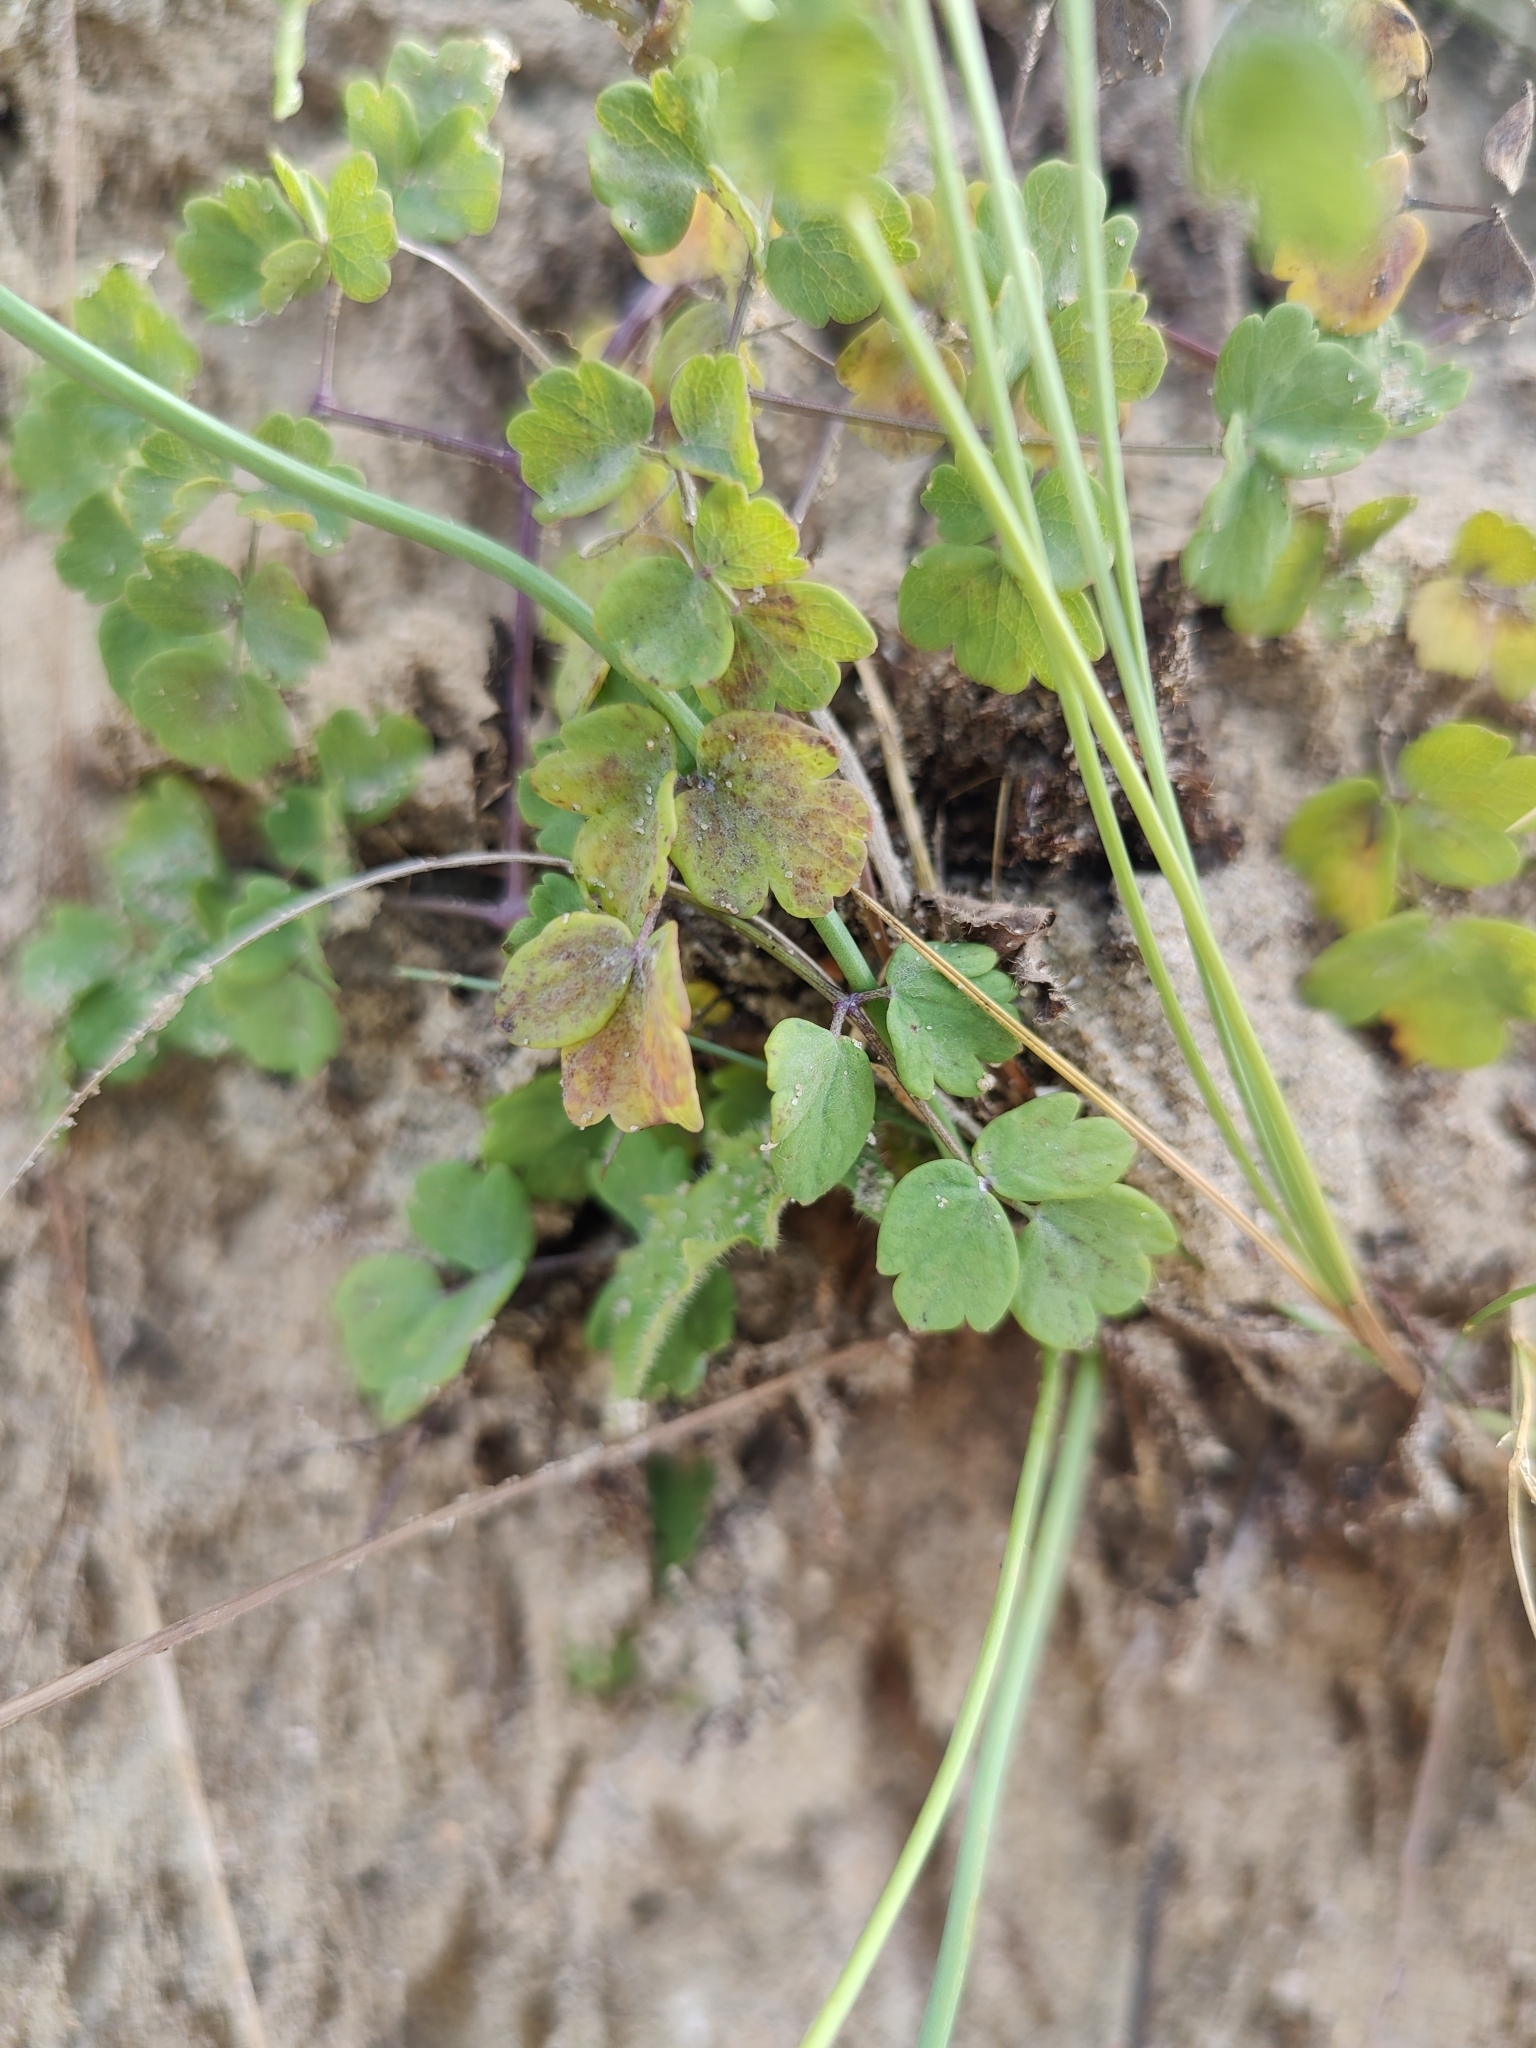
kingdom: Plantae
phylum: Tracheophyta
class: Magnoliopsida
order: Ranunculales
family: Ranunculaceae
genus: Thalictrum
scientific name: Thalictrum minus
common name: Lesser meadow-rue
